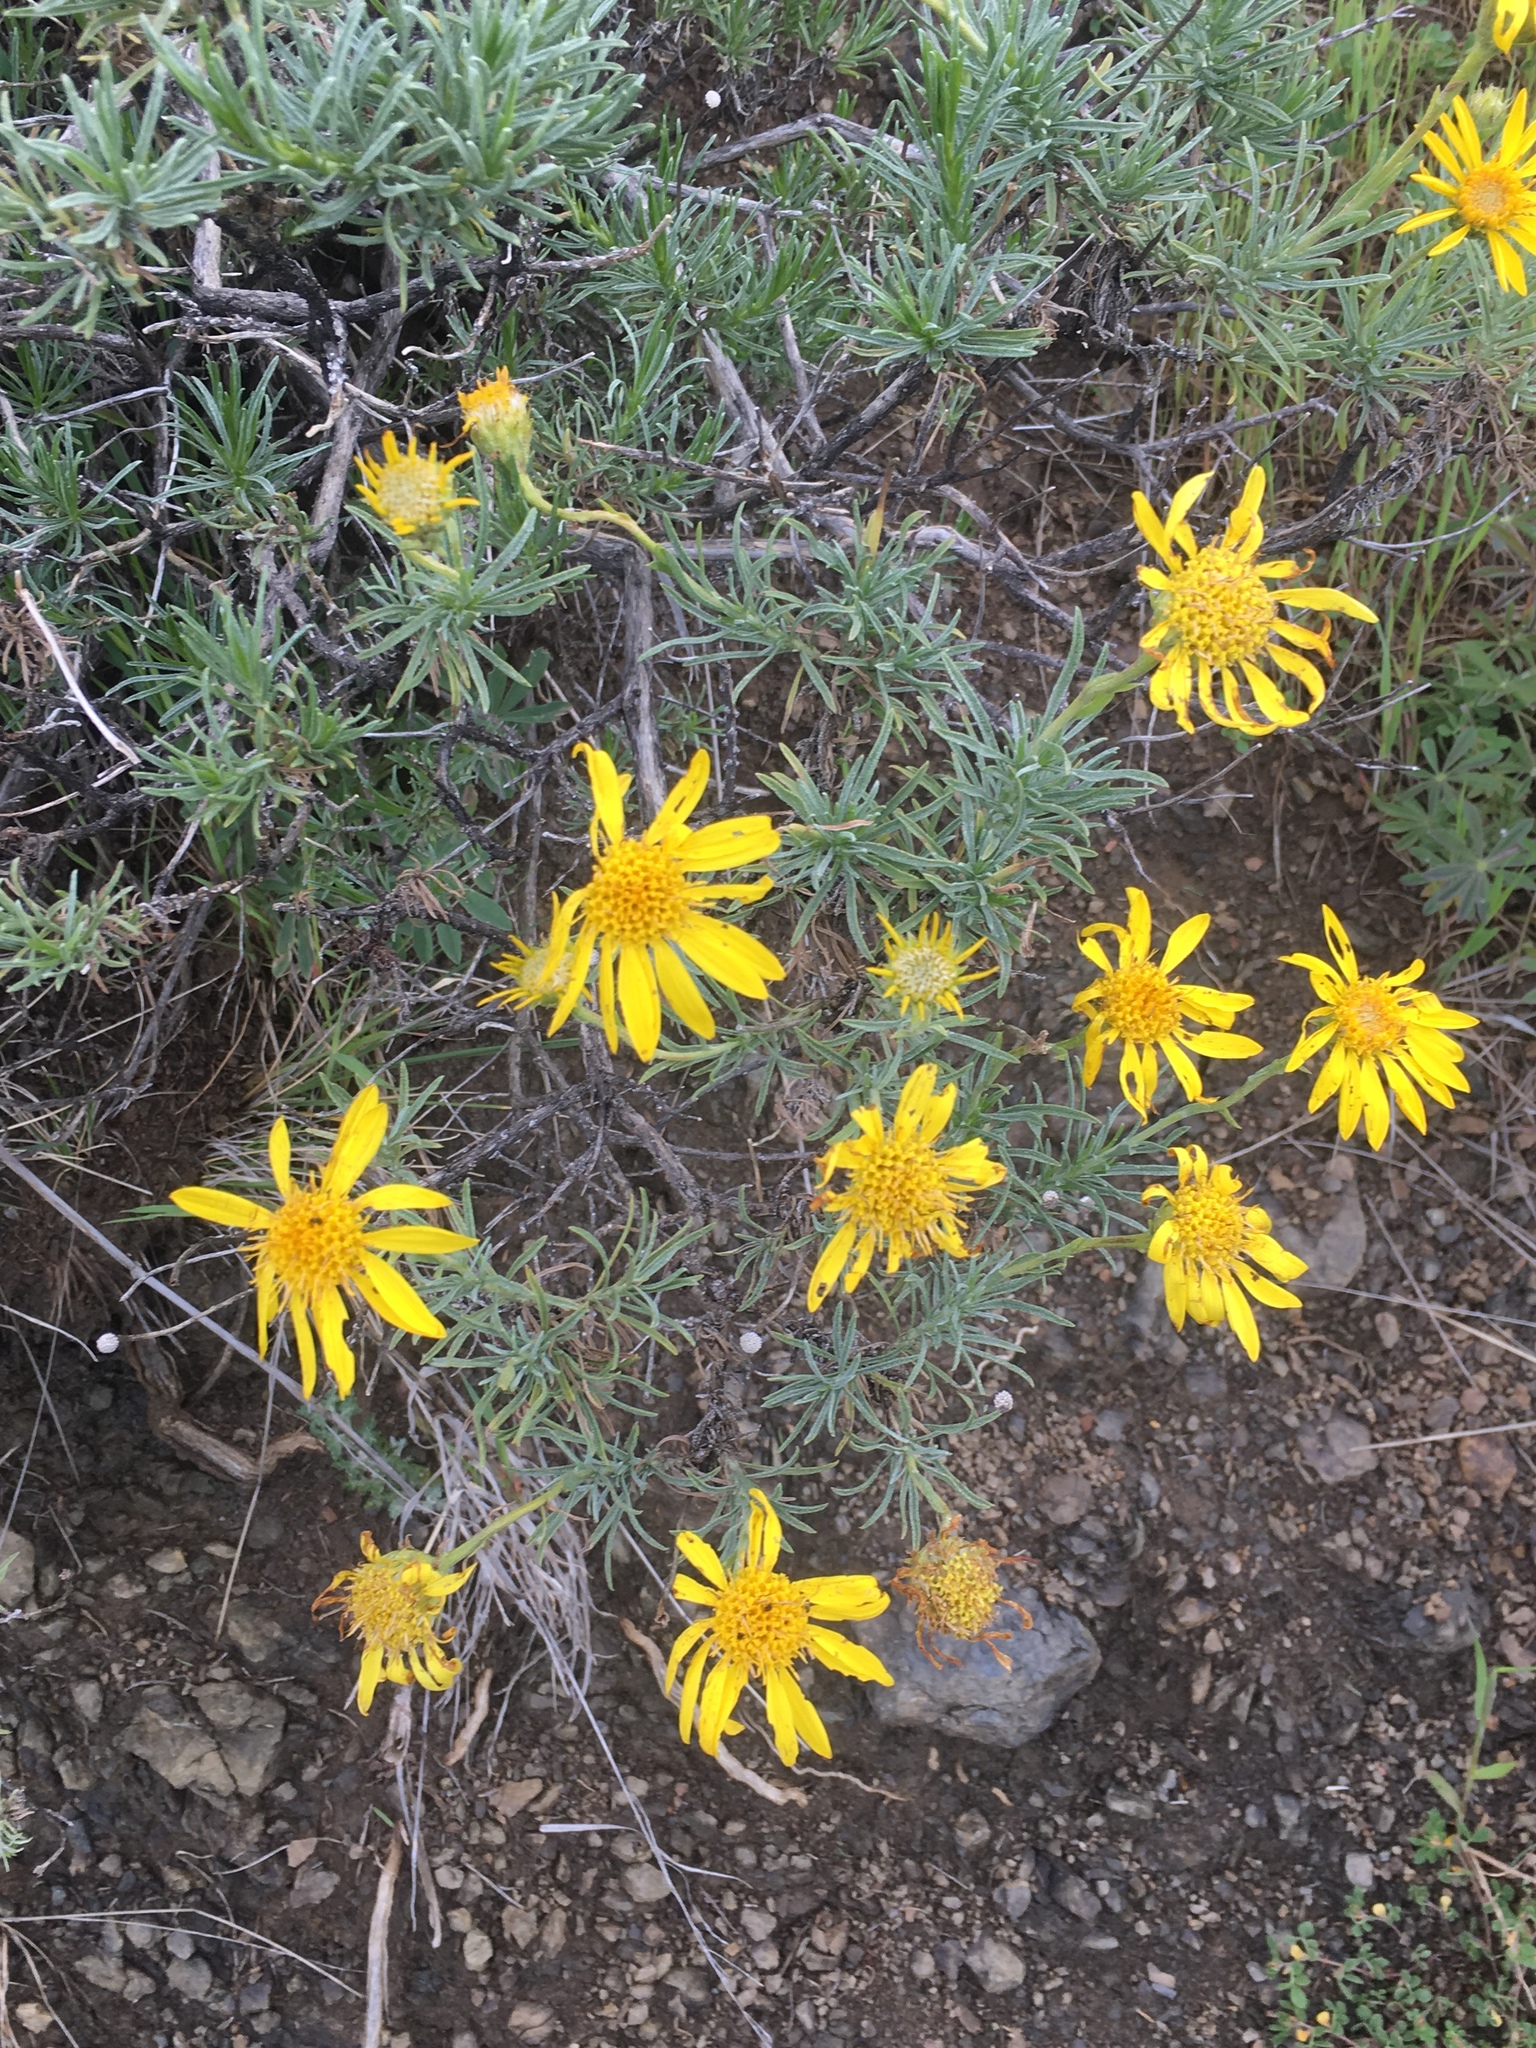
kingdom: Plantae
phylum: Tracheophyta
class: Magnoliopsida
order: Asterales
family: Asteraceae
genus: Ericameria
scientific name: Ericameria linearifolia
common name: Interior goldenbush
